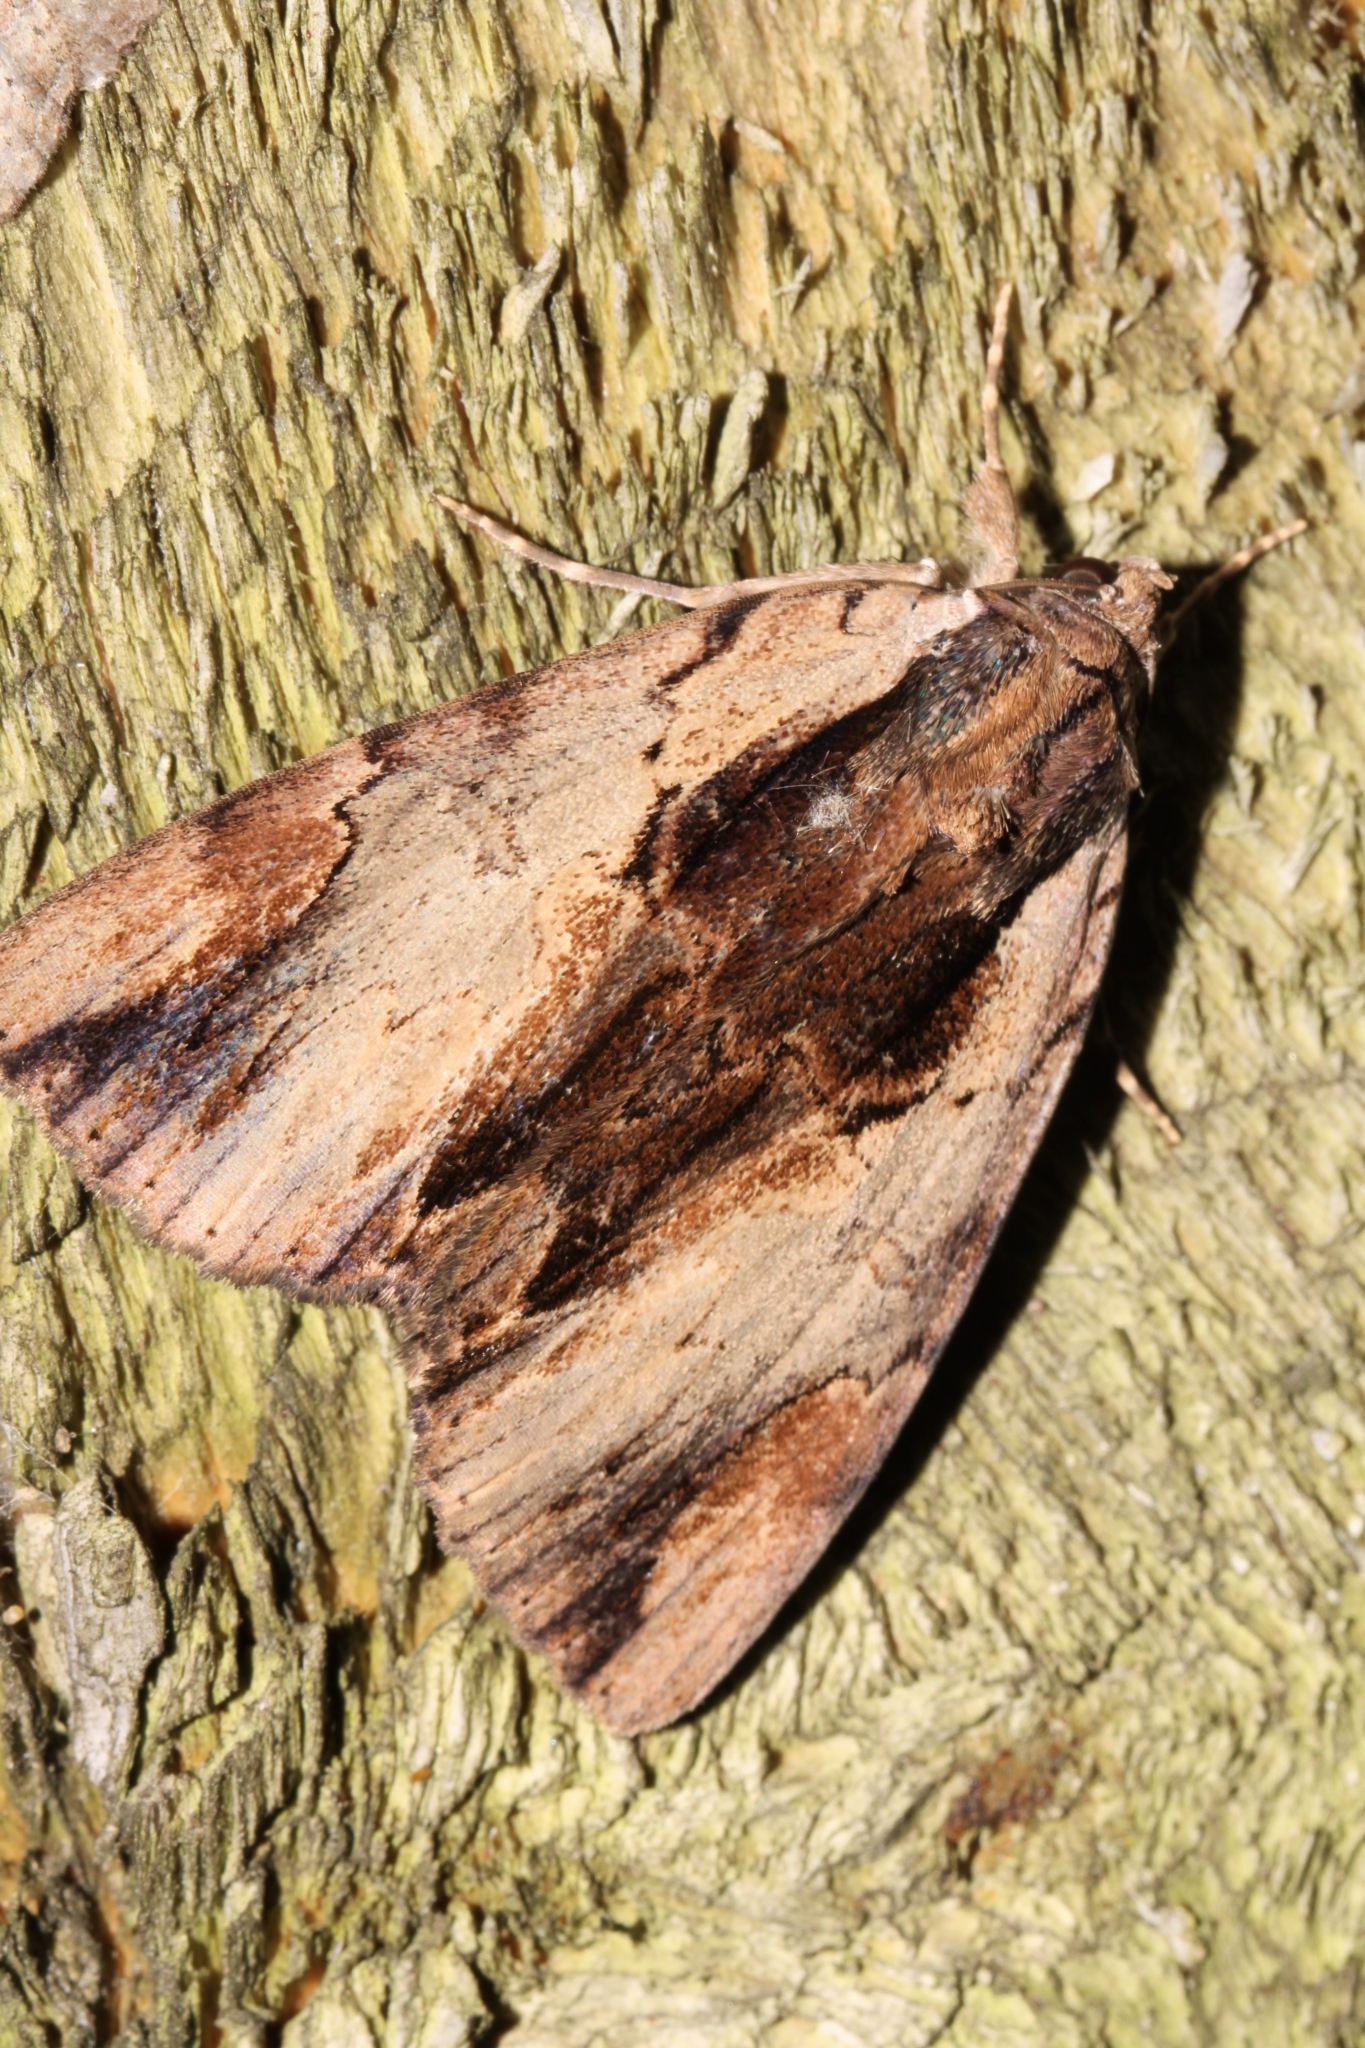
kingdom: Animalia
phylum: Arthropoda
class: Insecta
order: Lepidoptera
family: Erebidae
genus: Catocala
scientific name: Catocala ultronia
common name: Ultronia underwing
